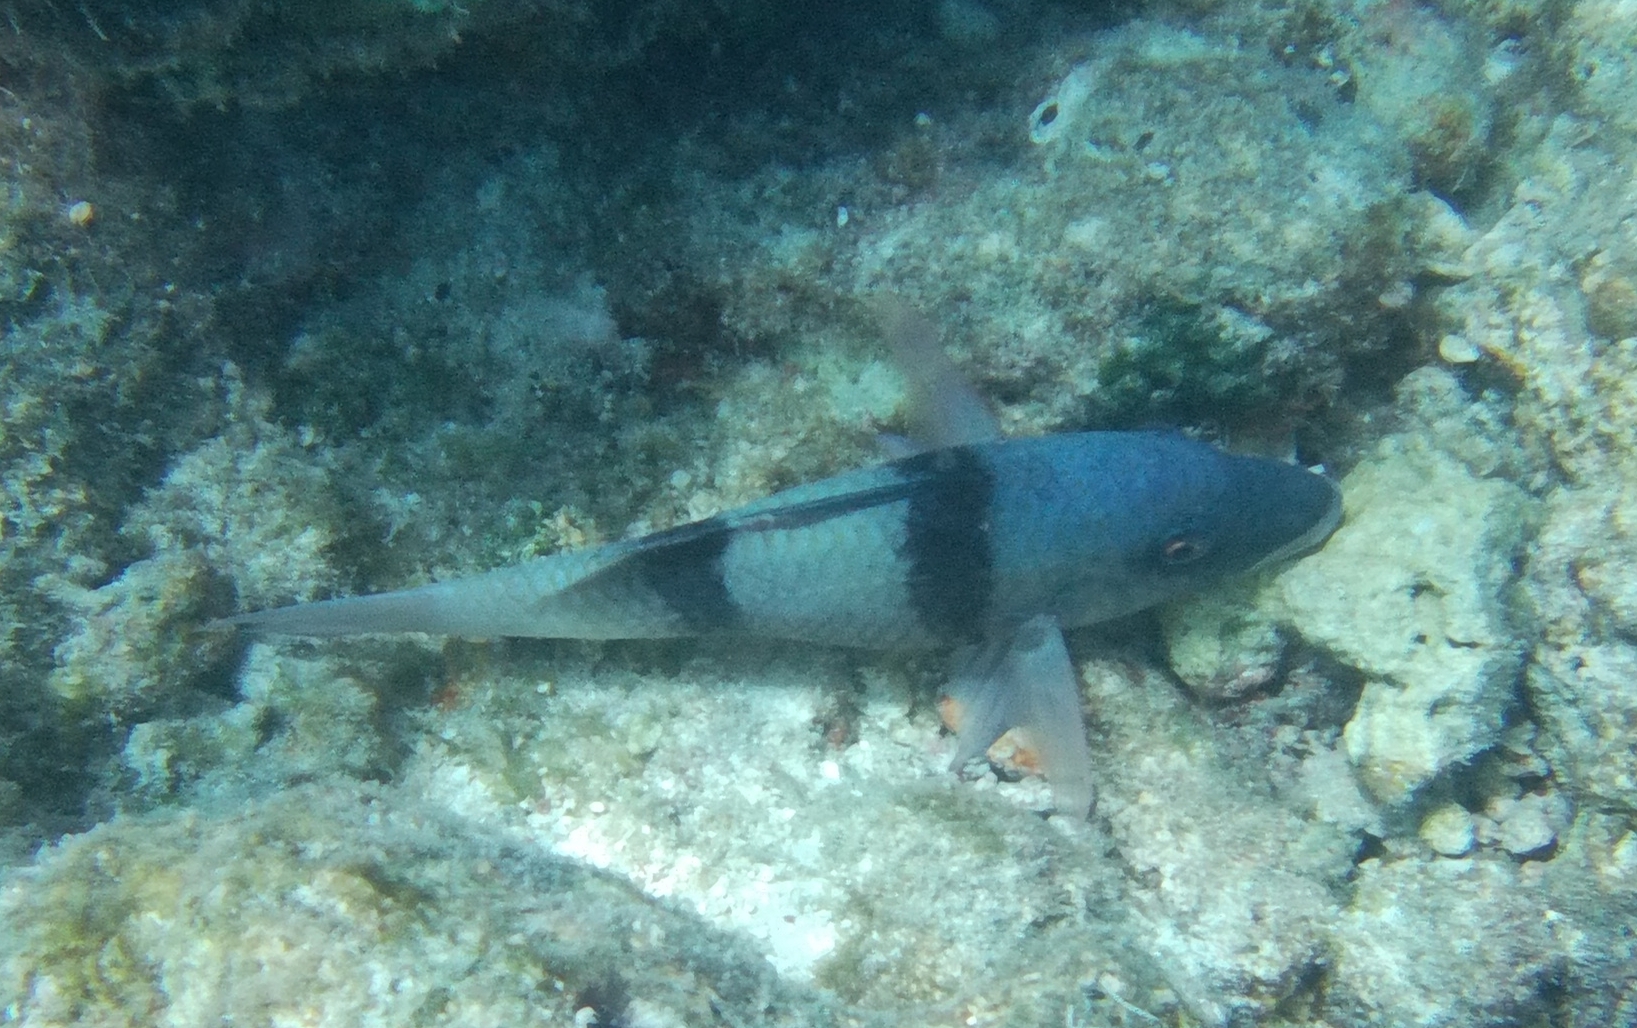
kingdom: Animalia
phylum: Chordata
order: Perciformes
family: Mullidae
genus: Parupeneus
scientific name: Parupeneus trifasciatus
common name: Doublebar goatfish
